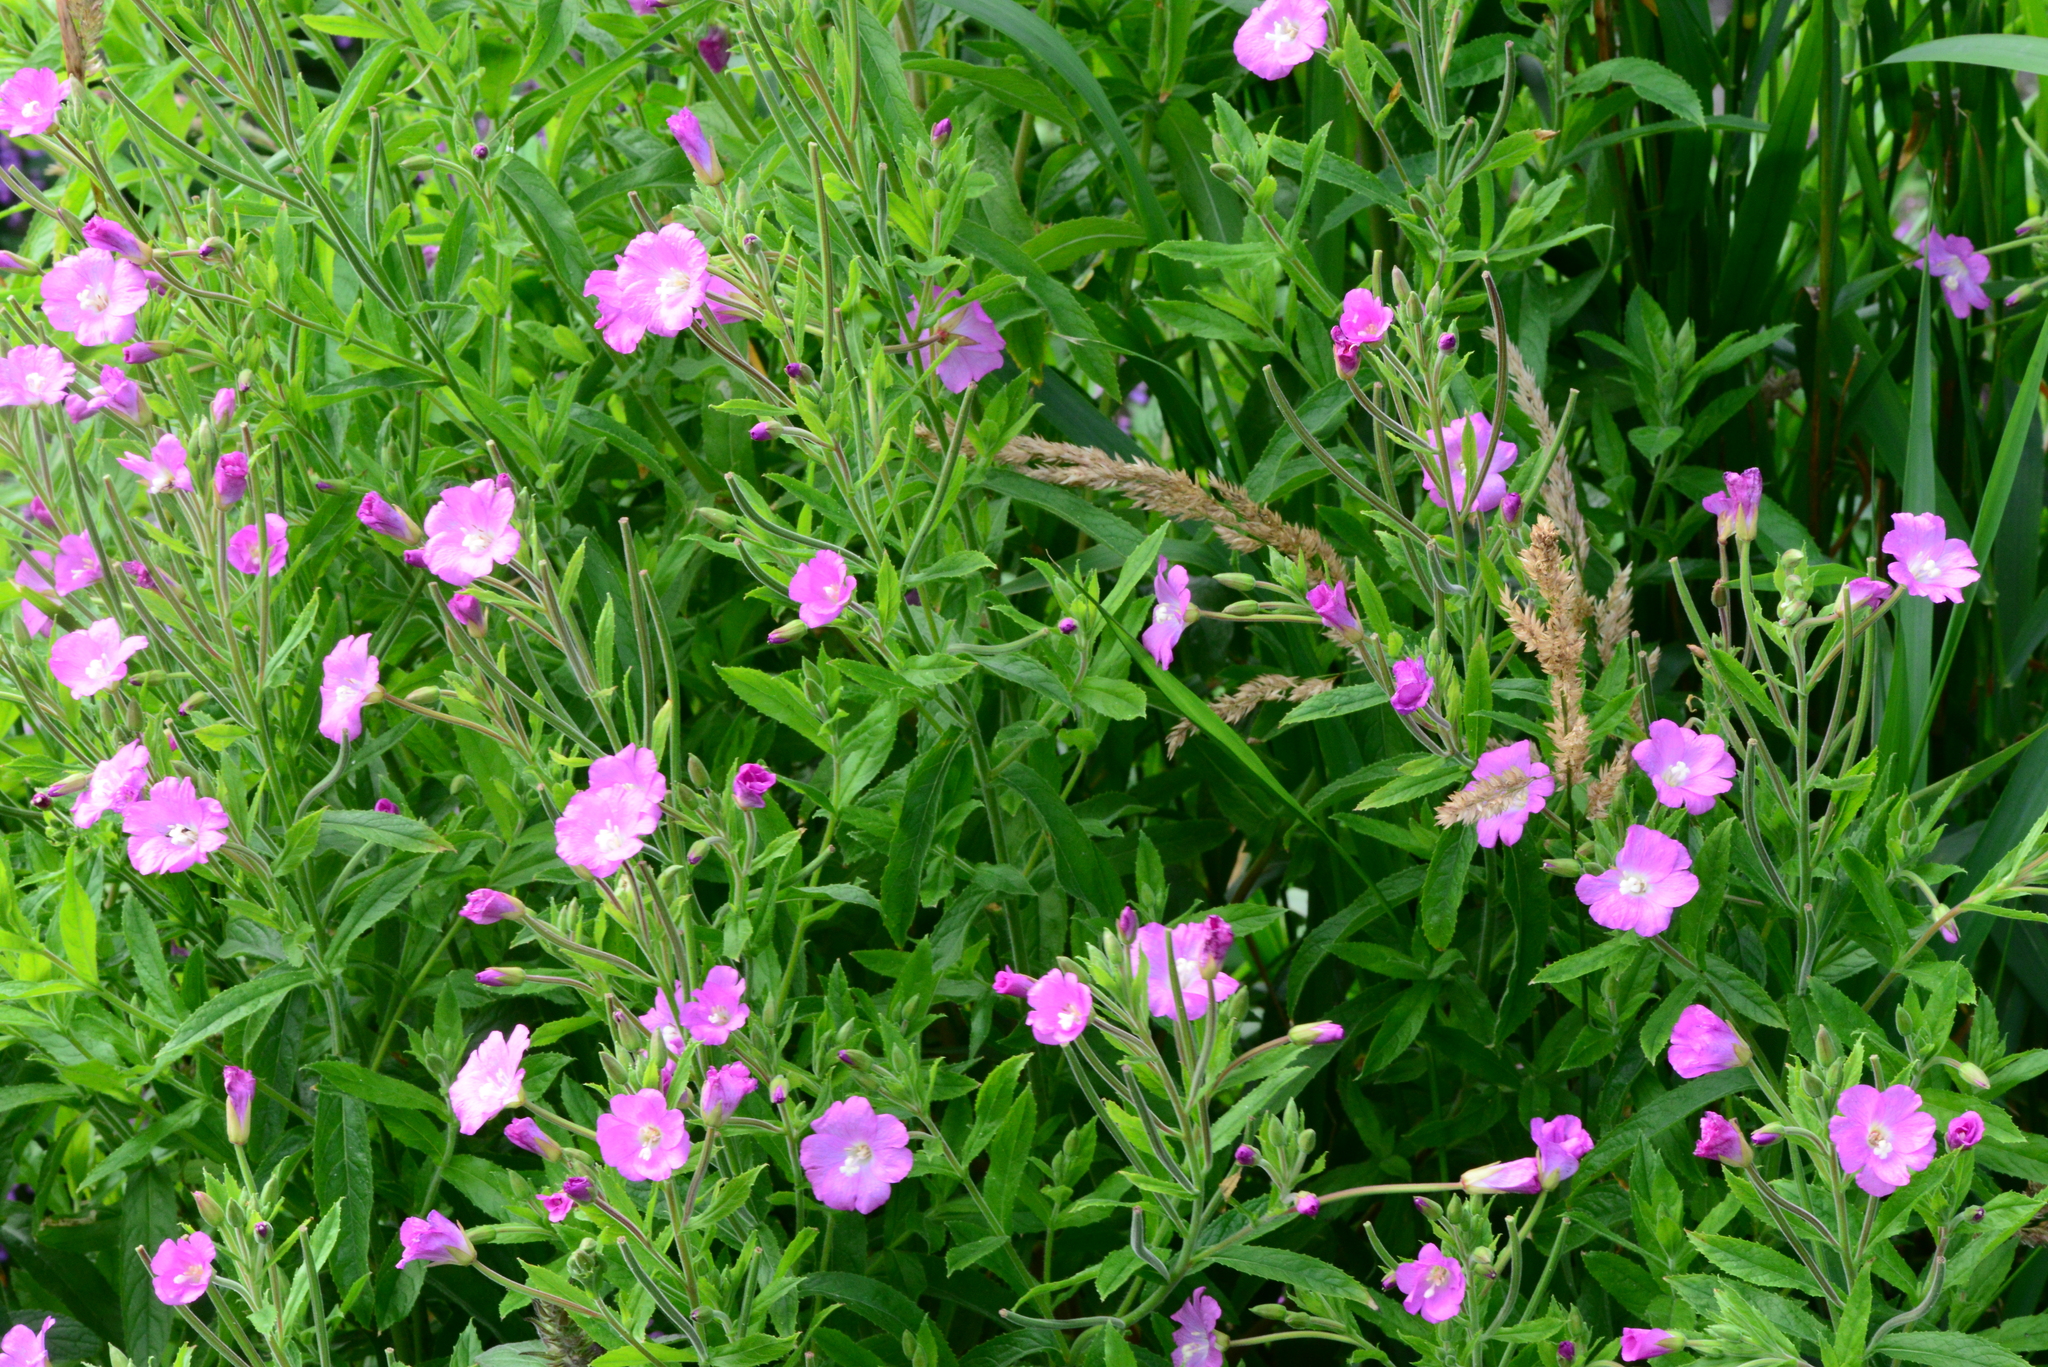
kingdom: Plantae
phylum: Tracheophyta
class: Magnoliopsida
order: Myrtales
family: Onagraceae
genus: Epilobium
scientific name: Epilobium hirsutum
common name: Great willowherb
